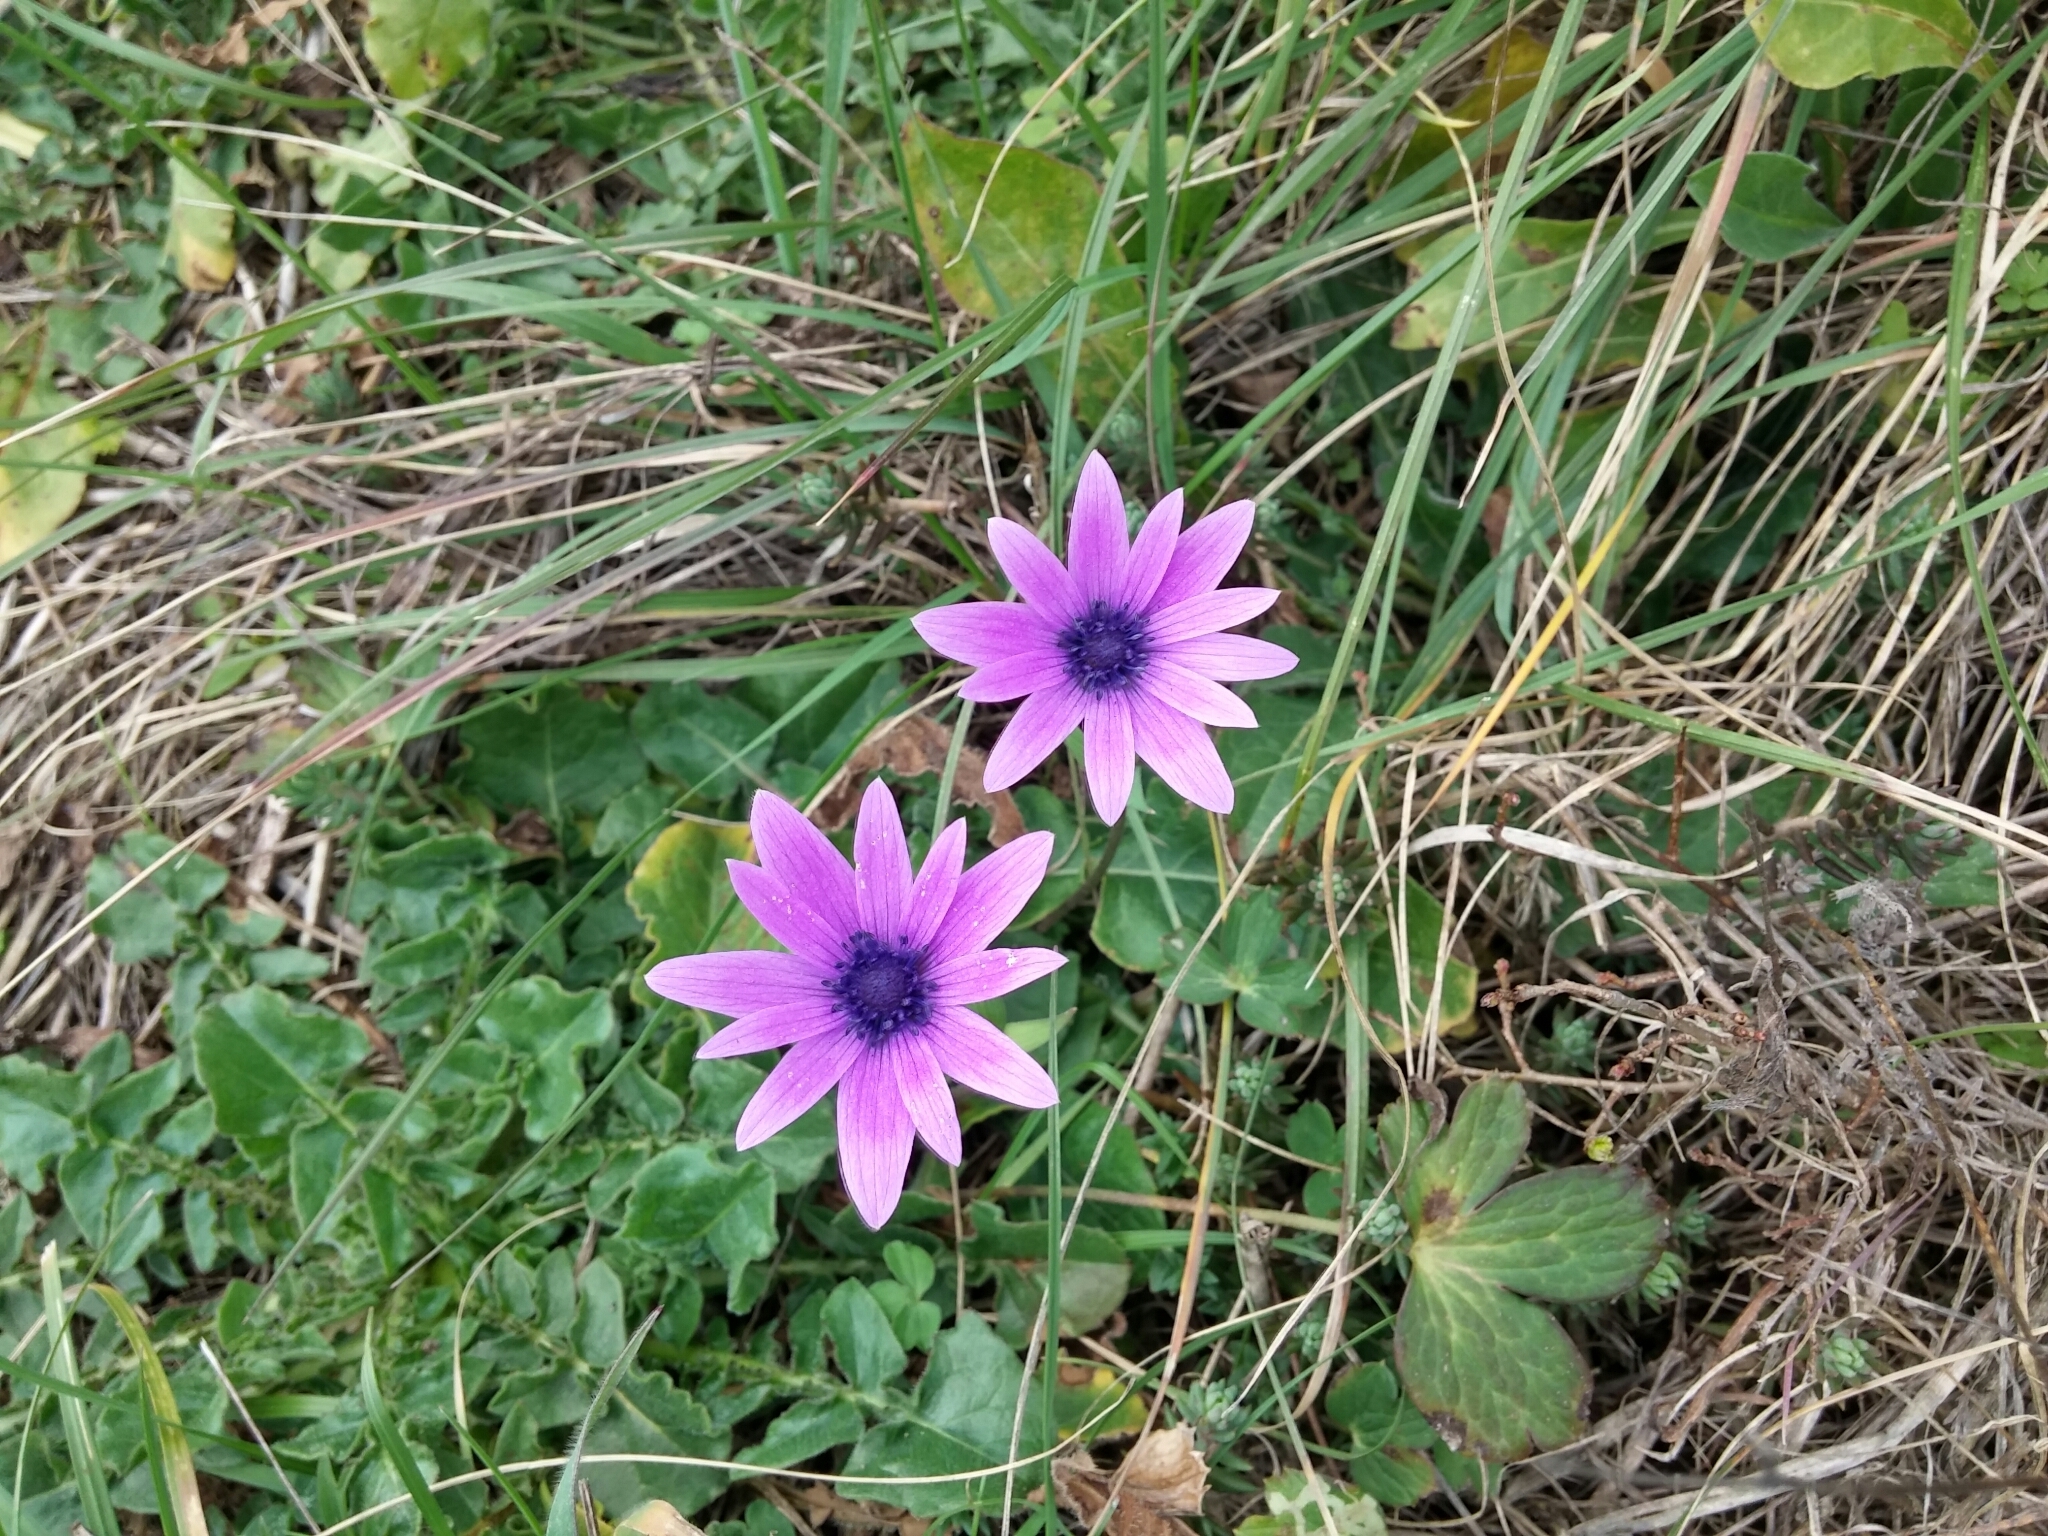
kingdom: Plantae
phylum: Tracheophyta
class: Magnoliopsida
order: Ranunculales
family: Ranunculaceae
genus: Anemone
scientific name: Anemone hortensis
